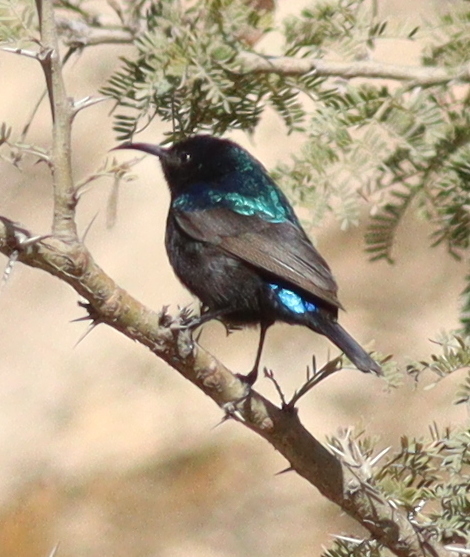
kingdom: Animalia
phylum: Chordata
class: Aves
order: Passeriformes
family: Nectariniidae
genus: Cinnyris
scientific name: Cinnyris osea
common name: Palestine sunbird
